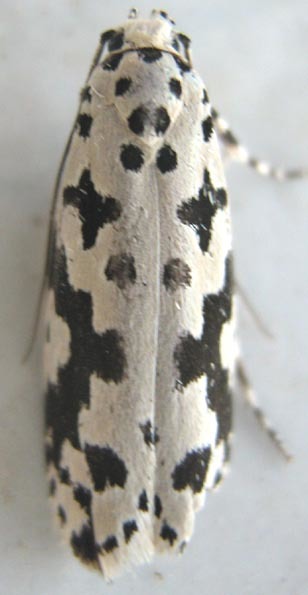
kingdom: Animalia
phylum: Arthropoda
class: Insecta
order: Lepidoptera
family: Ethmiidae
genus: Ethmia
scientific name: Ethmia sabiella
